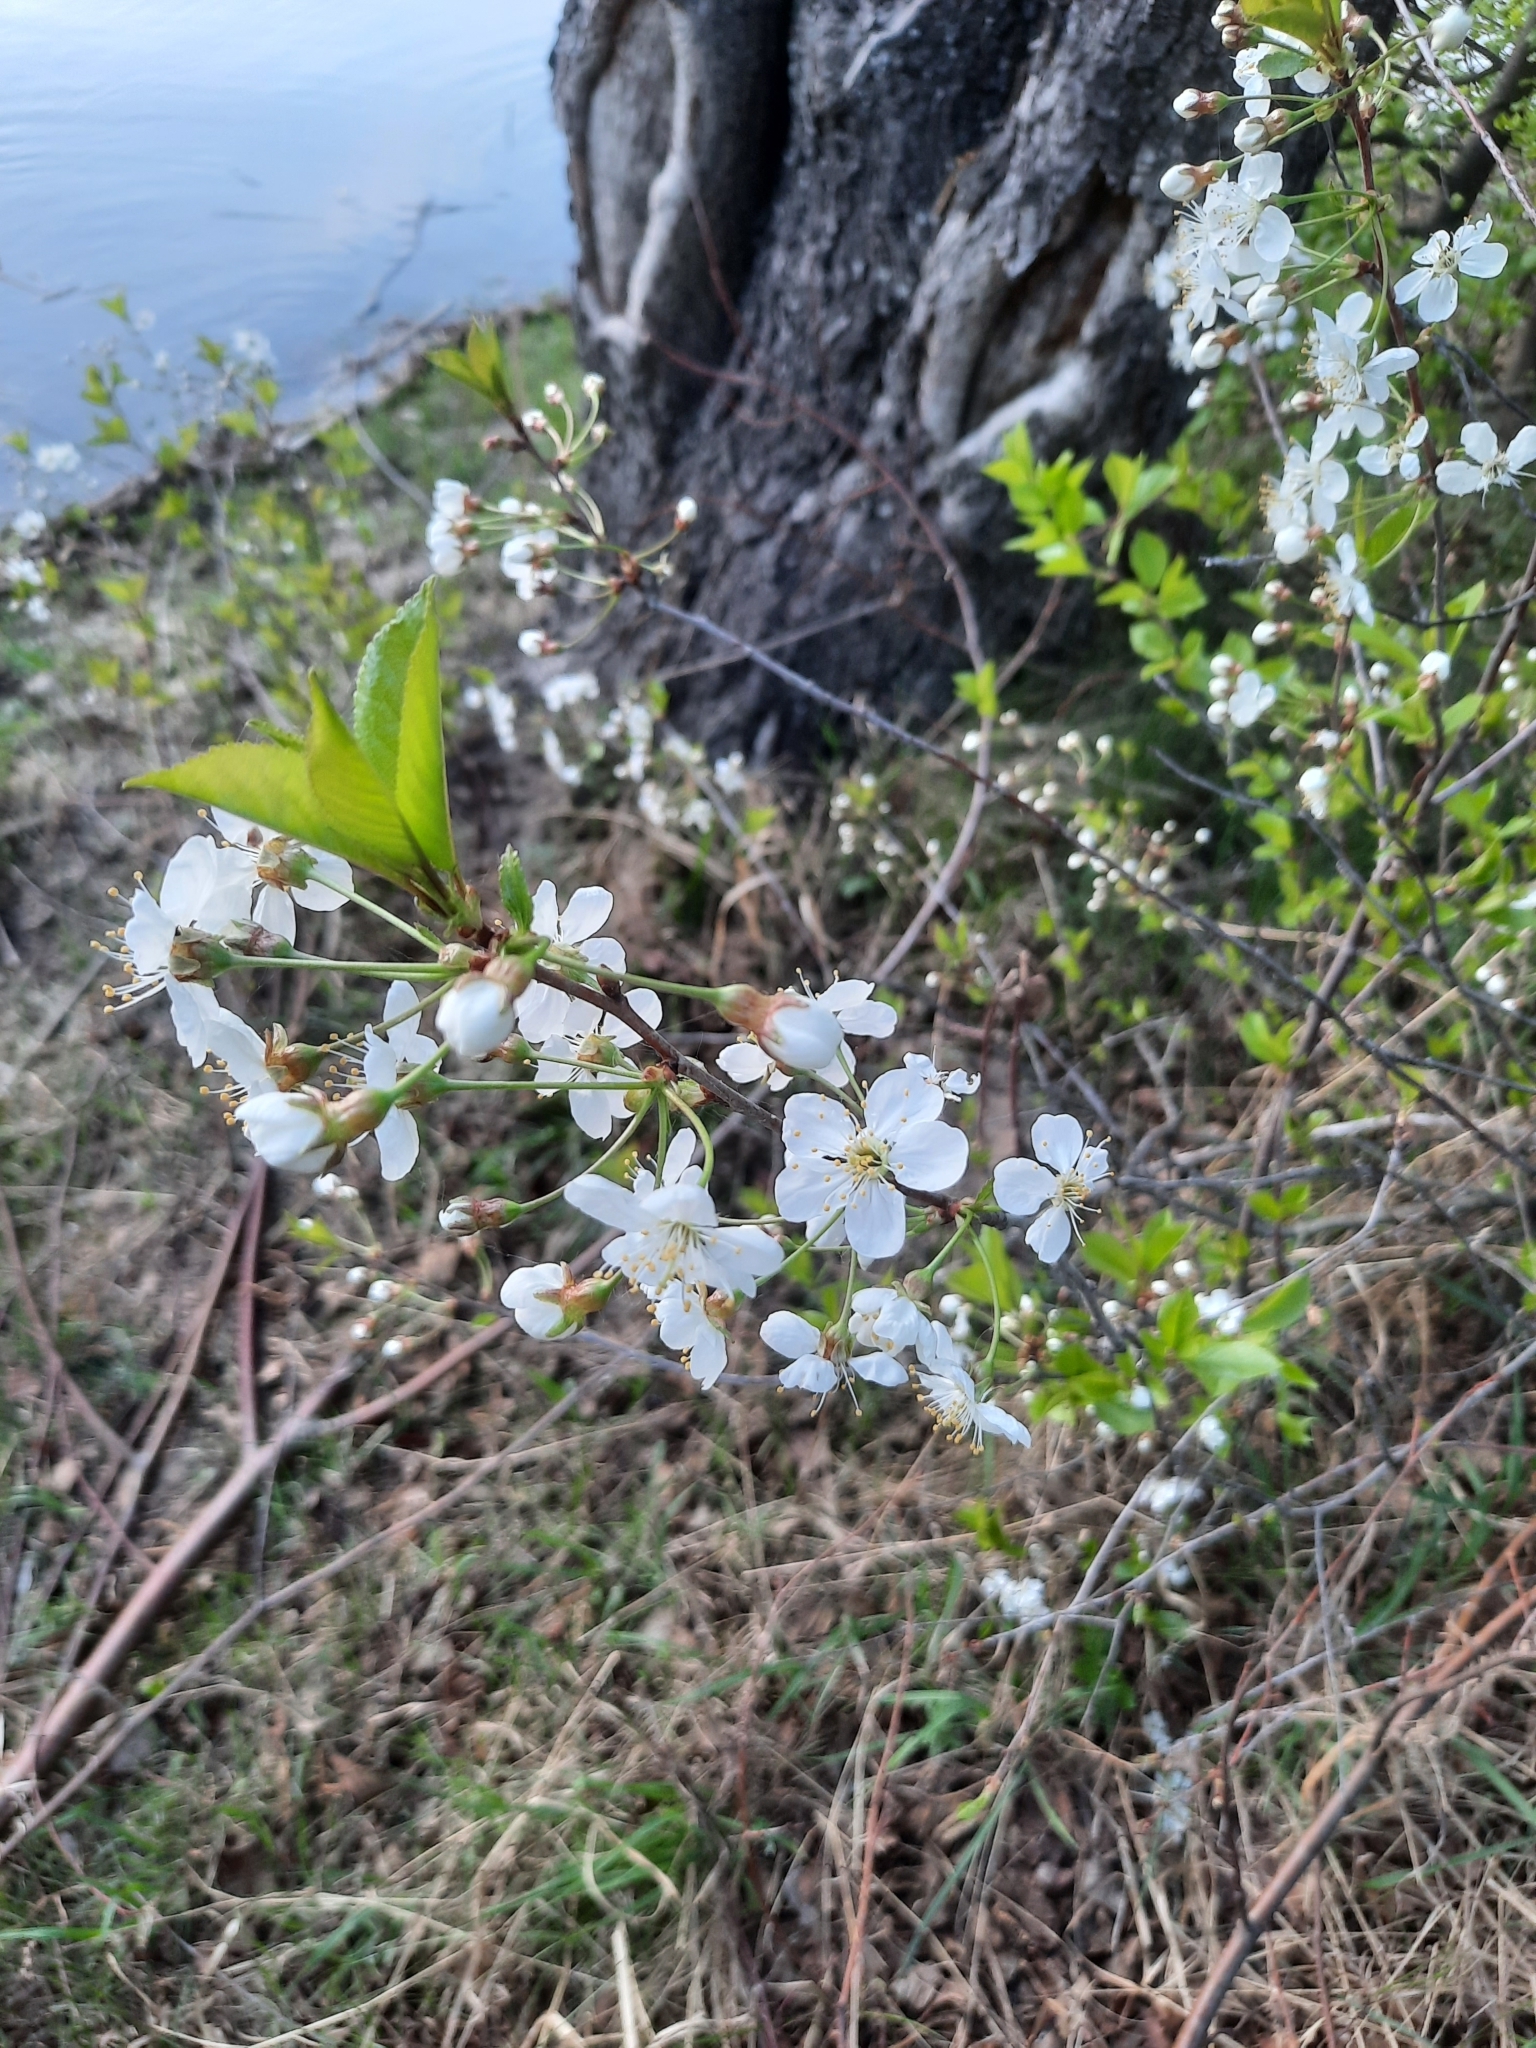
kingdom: Plantae
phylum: Tracheophyta
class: Magnoliopsida
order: Rosales
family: Rosaceae
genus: Prunus
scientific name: Prunus cerasus
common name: Morello cherry
